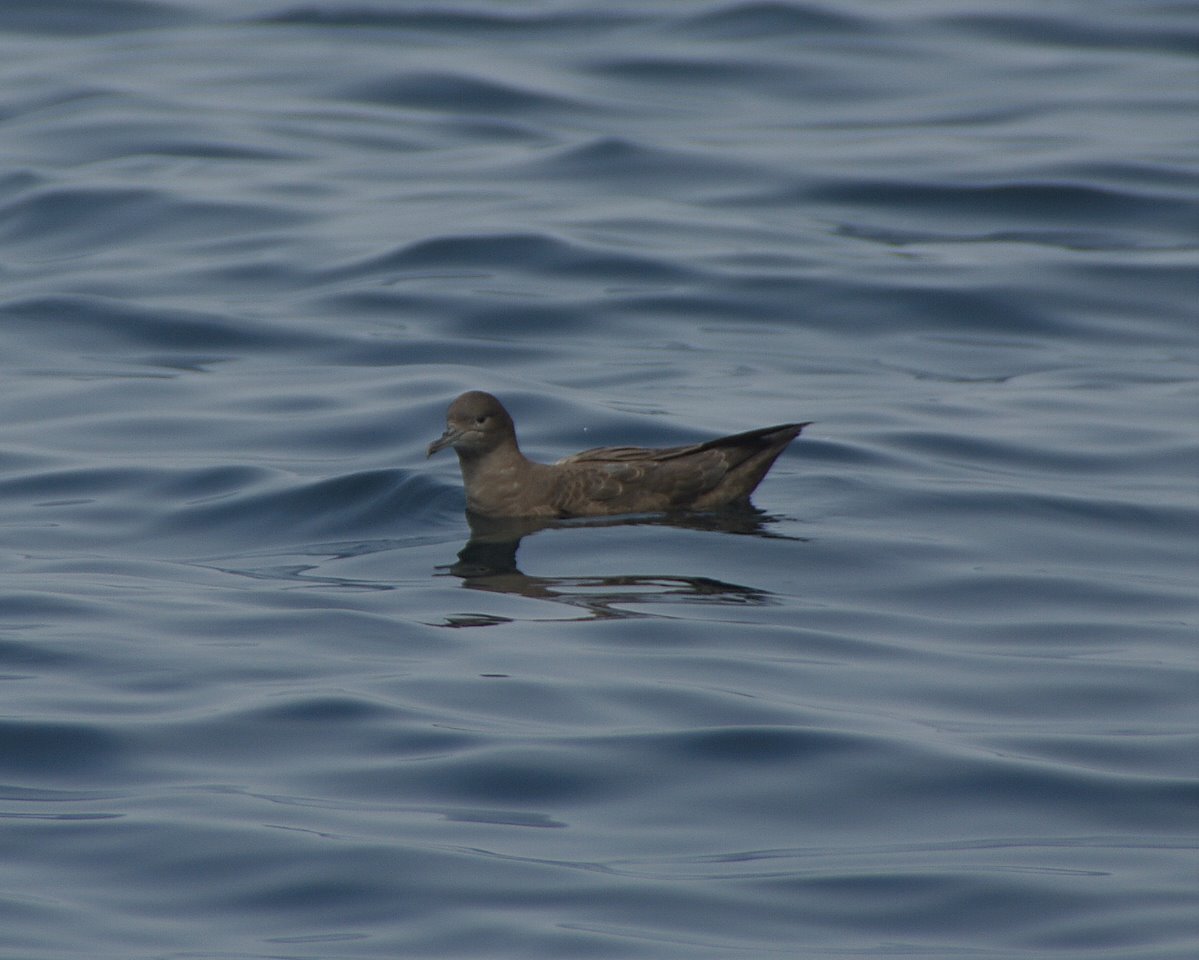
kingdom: Animalia
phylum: Chordata
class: Aves
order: Procellariiformes
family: Procellariidae
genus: Puffinus
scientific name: Puffinus griseus
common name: Sooty shearwater
